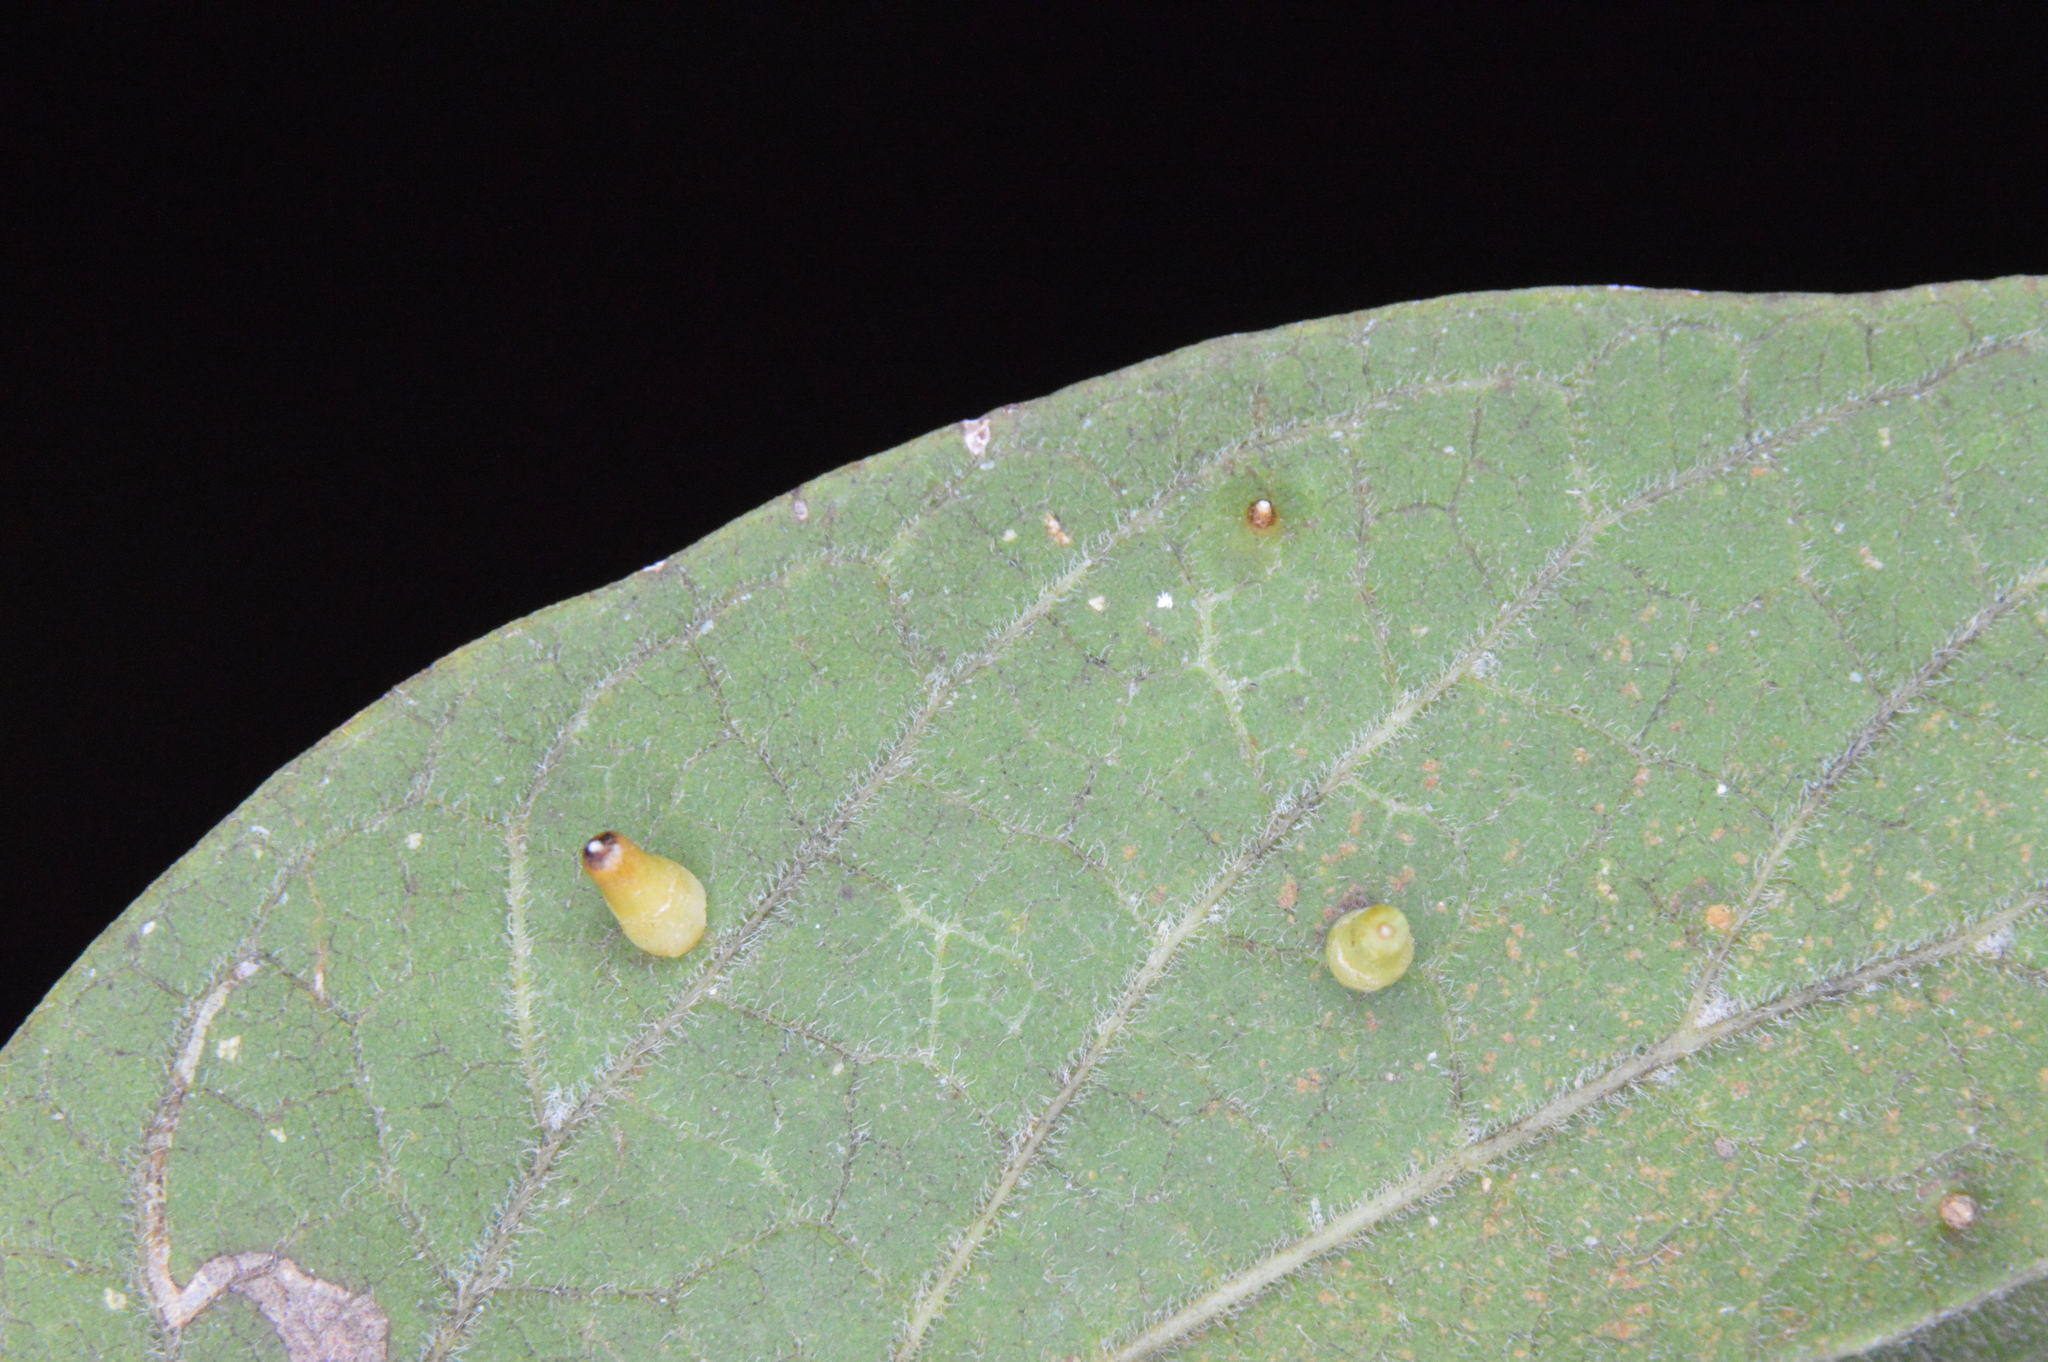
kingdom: Animalia
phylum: Arthropoda
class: Insecta
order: Diptera
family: Cecidomyiidae
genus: Celticecis
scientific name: Celticecis aciculata
